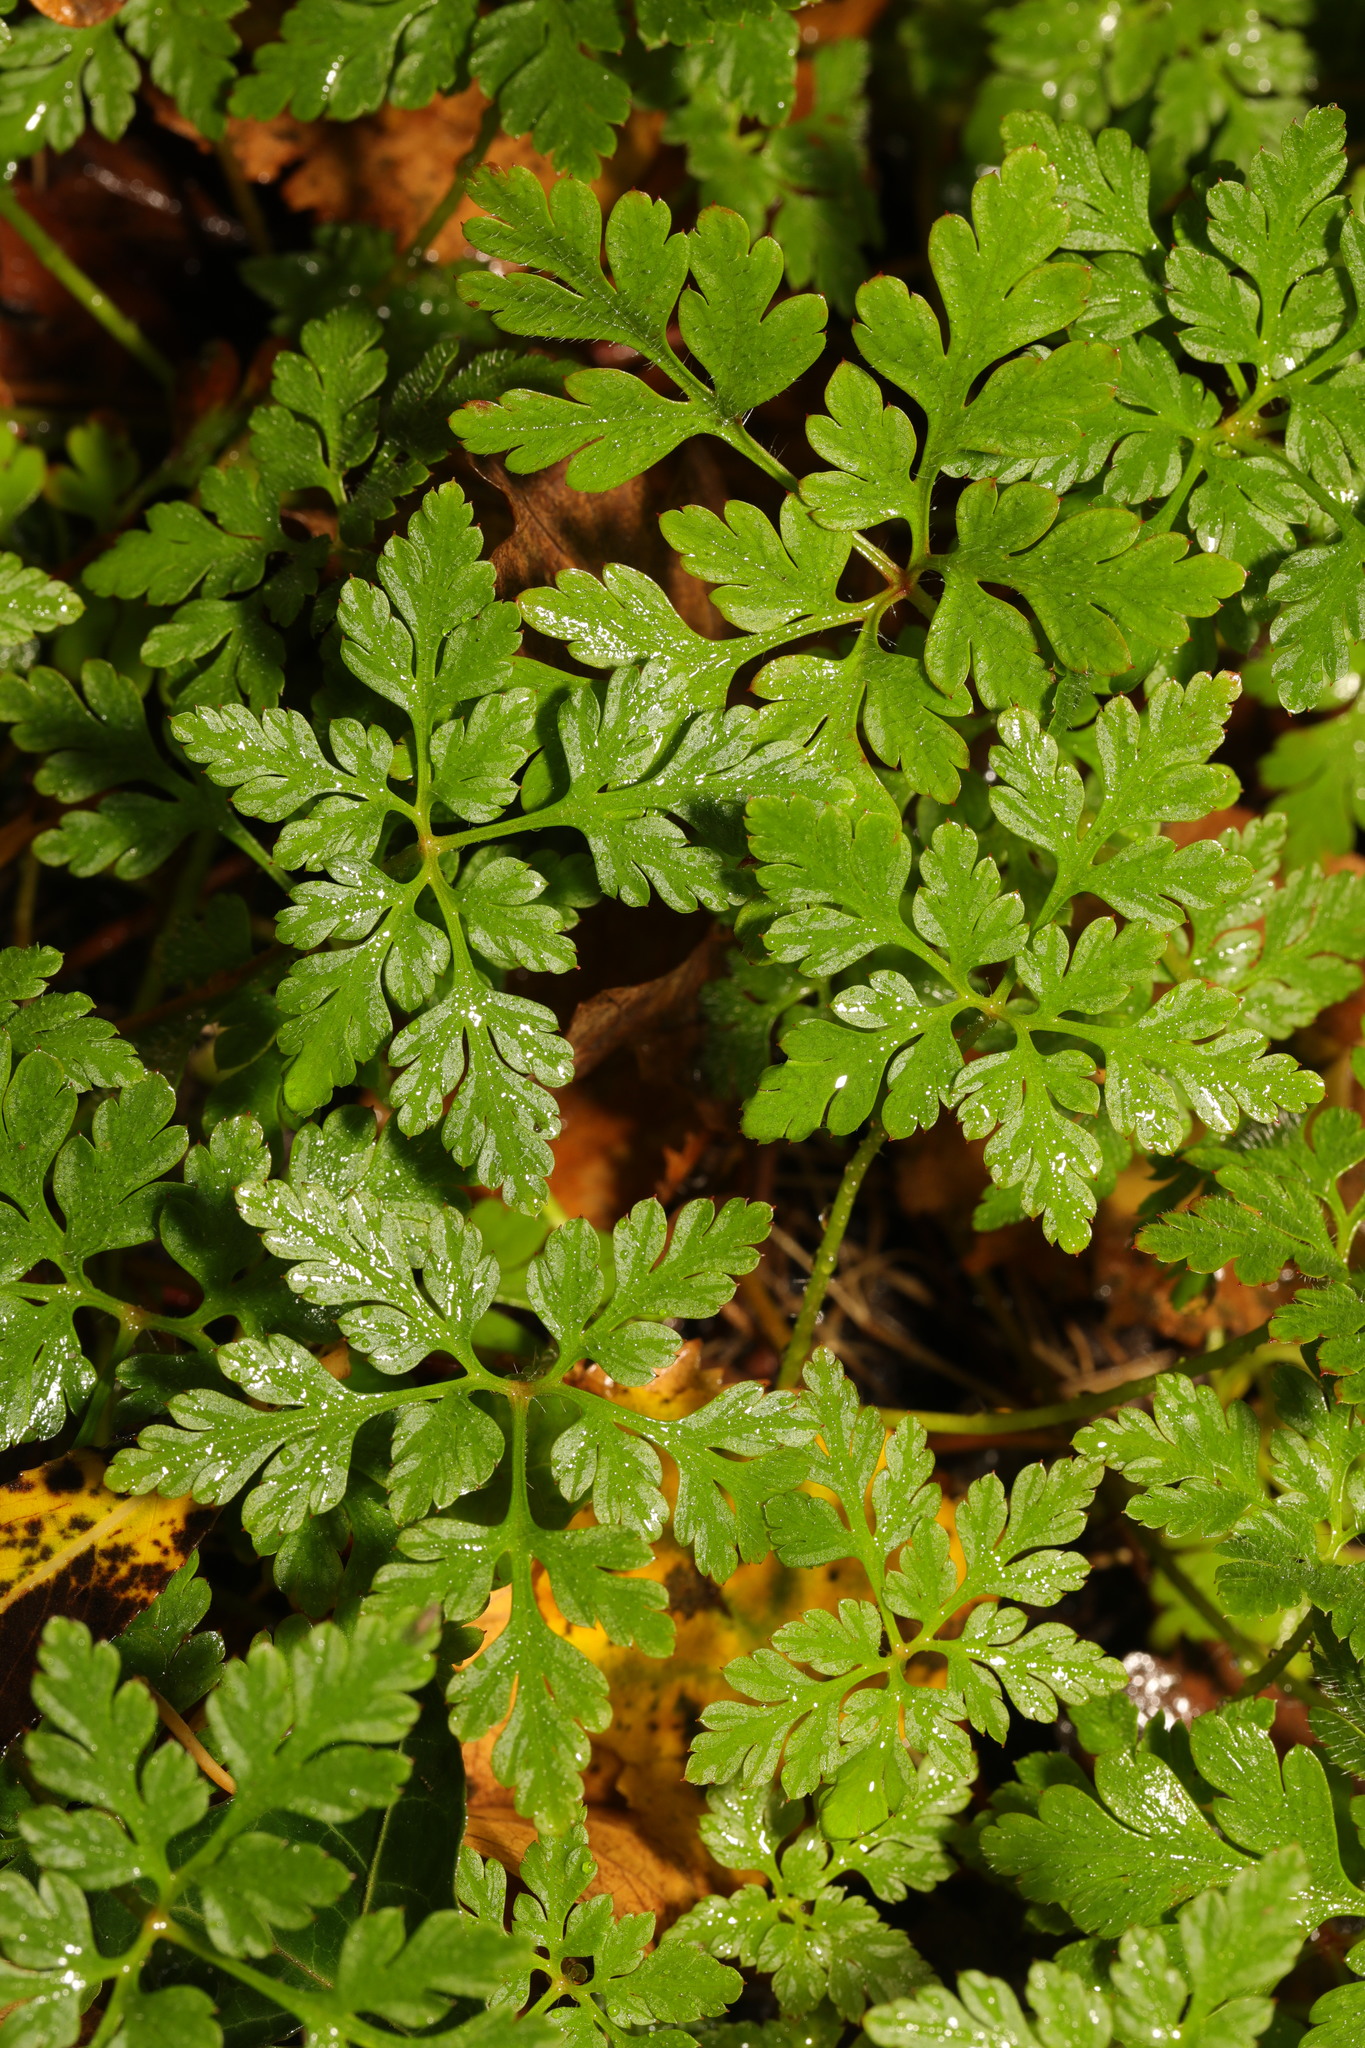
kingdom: Plantae
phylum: Tracheophyta
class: Magnoliopsida
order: Geraniales
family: Geraniaceae
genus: Geranium
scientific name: Geranium robertianum
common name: Herb-robert
